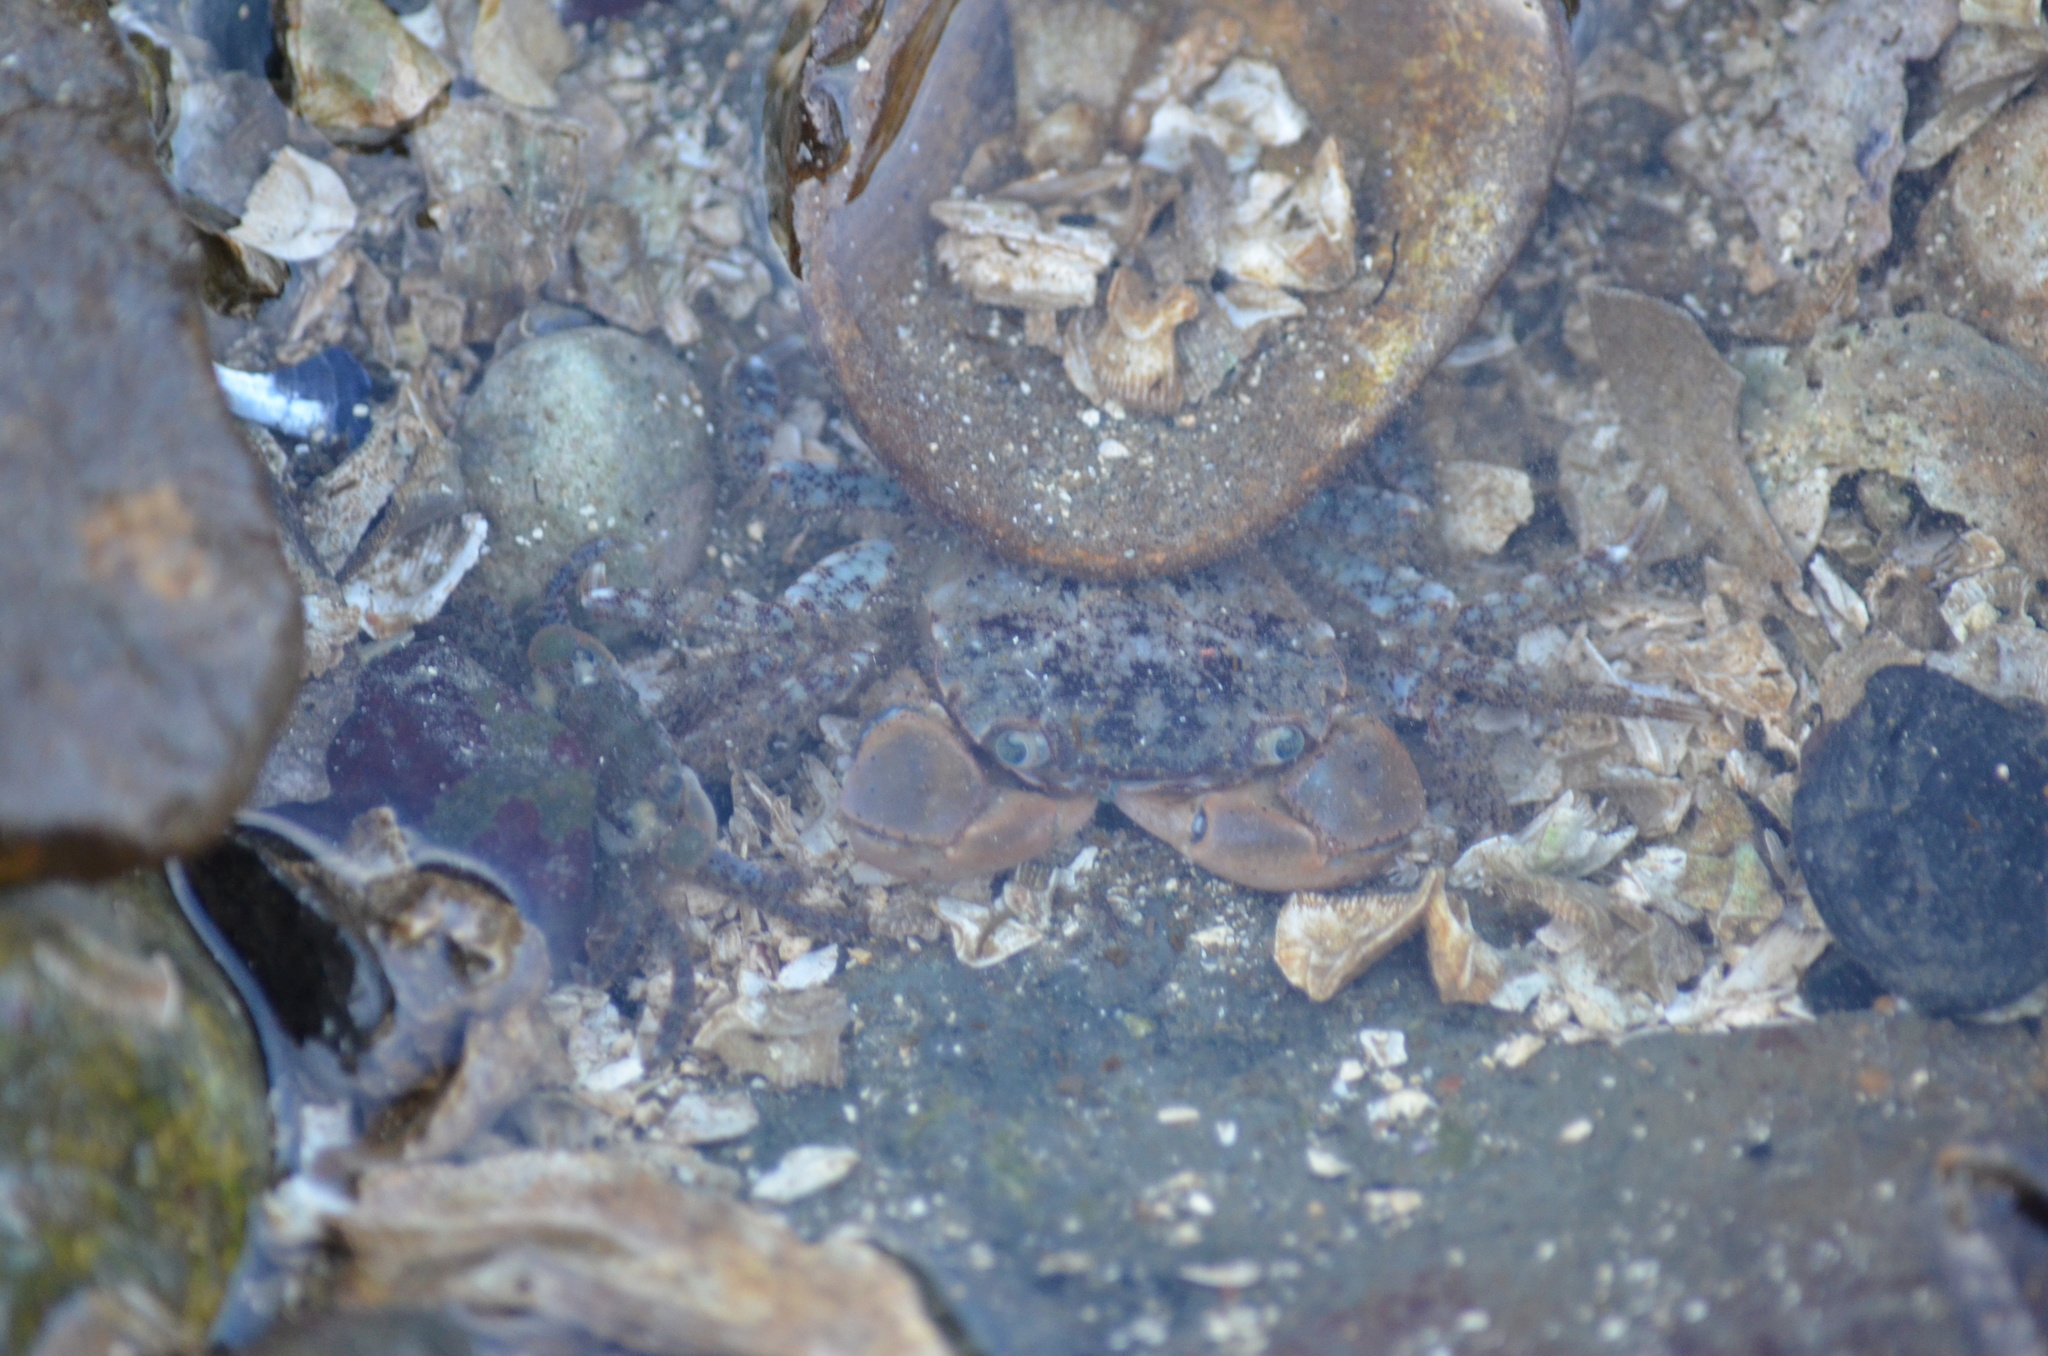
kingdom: Animalia
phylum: Arthropoda
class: Malacostraca
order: Decapoda
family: Varunidae
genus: Hemigrapsus
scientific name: Hemigrapsus oregonensis
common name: Yellow shore crab
